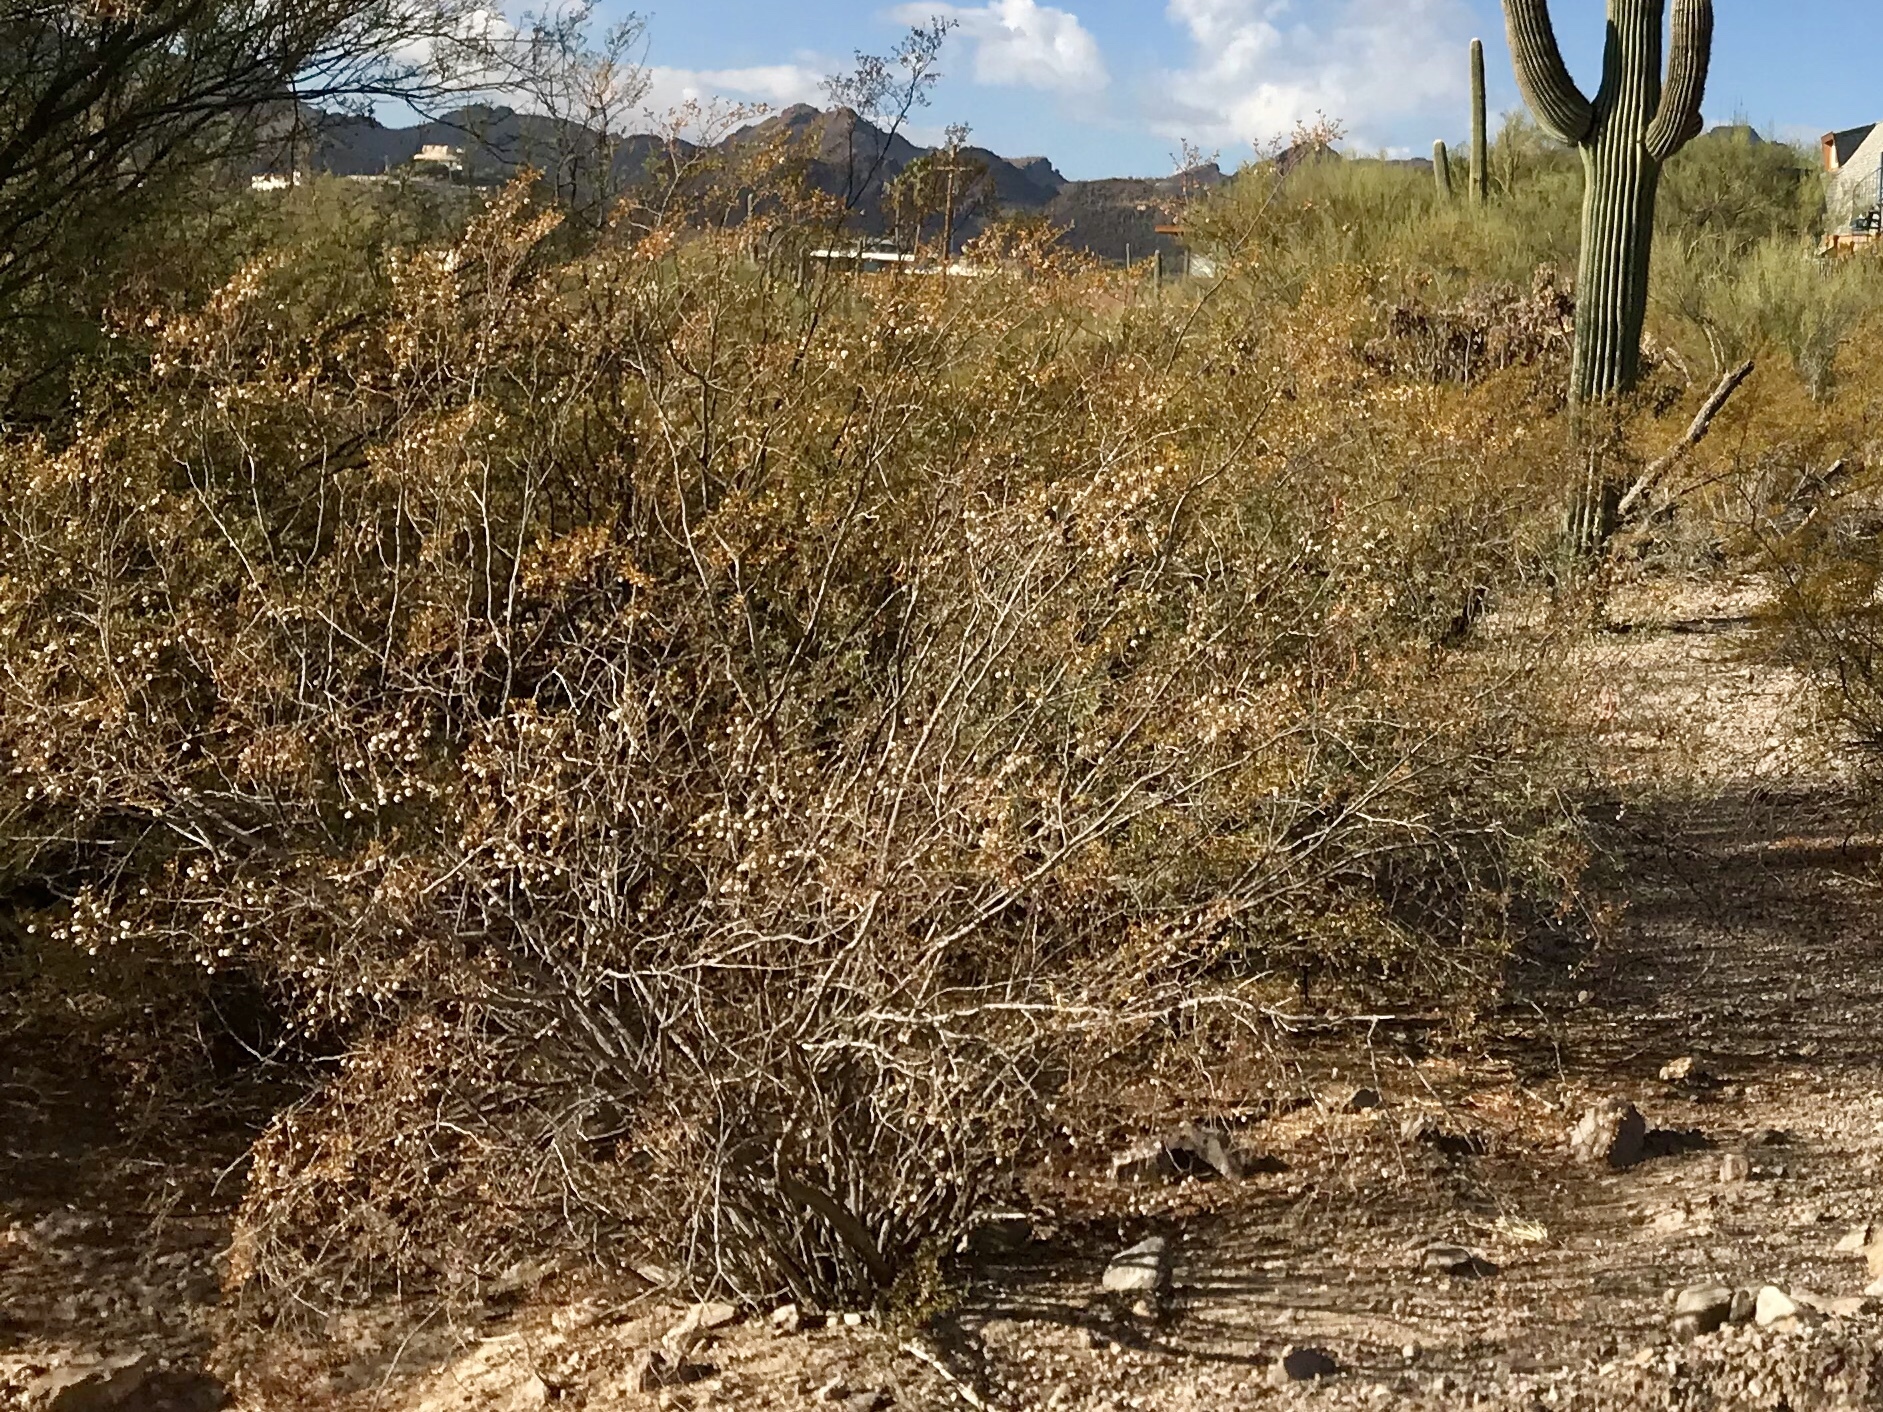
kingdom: Plantae
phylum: Tracheophyta
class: Magnoliopsida
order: Zygophyllales
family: Zygophyllaceae
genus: Larrea
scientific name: Larrea tridentata
